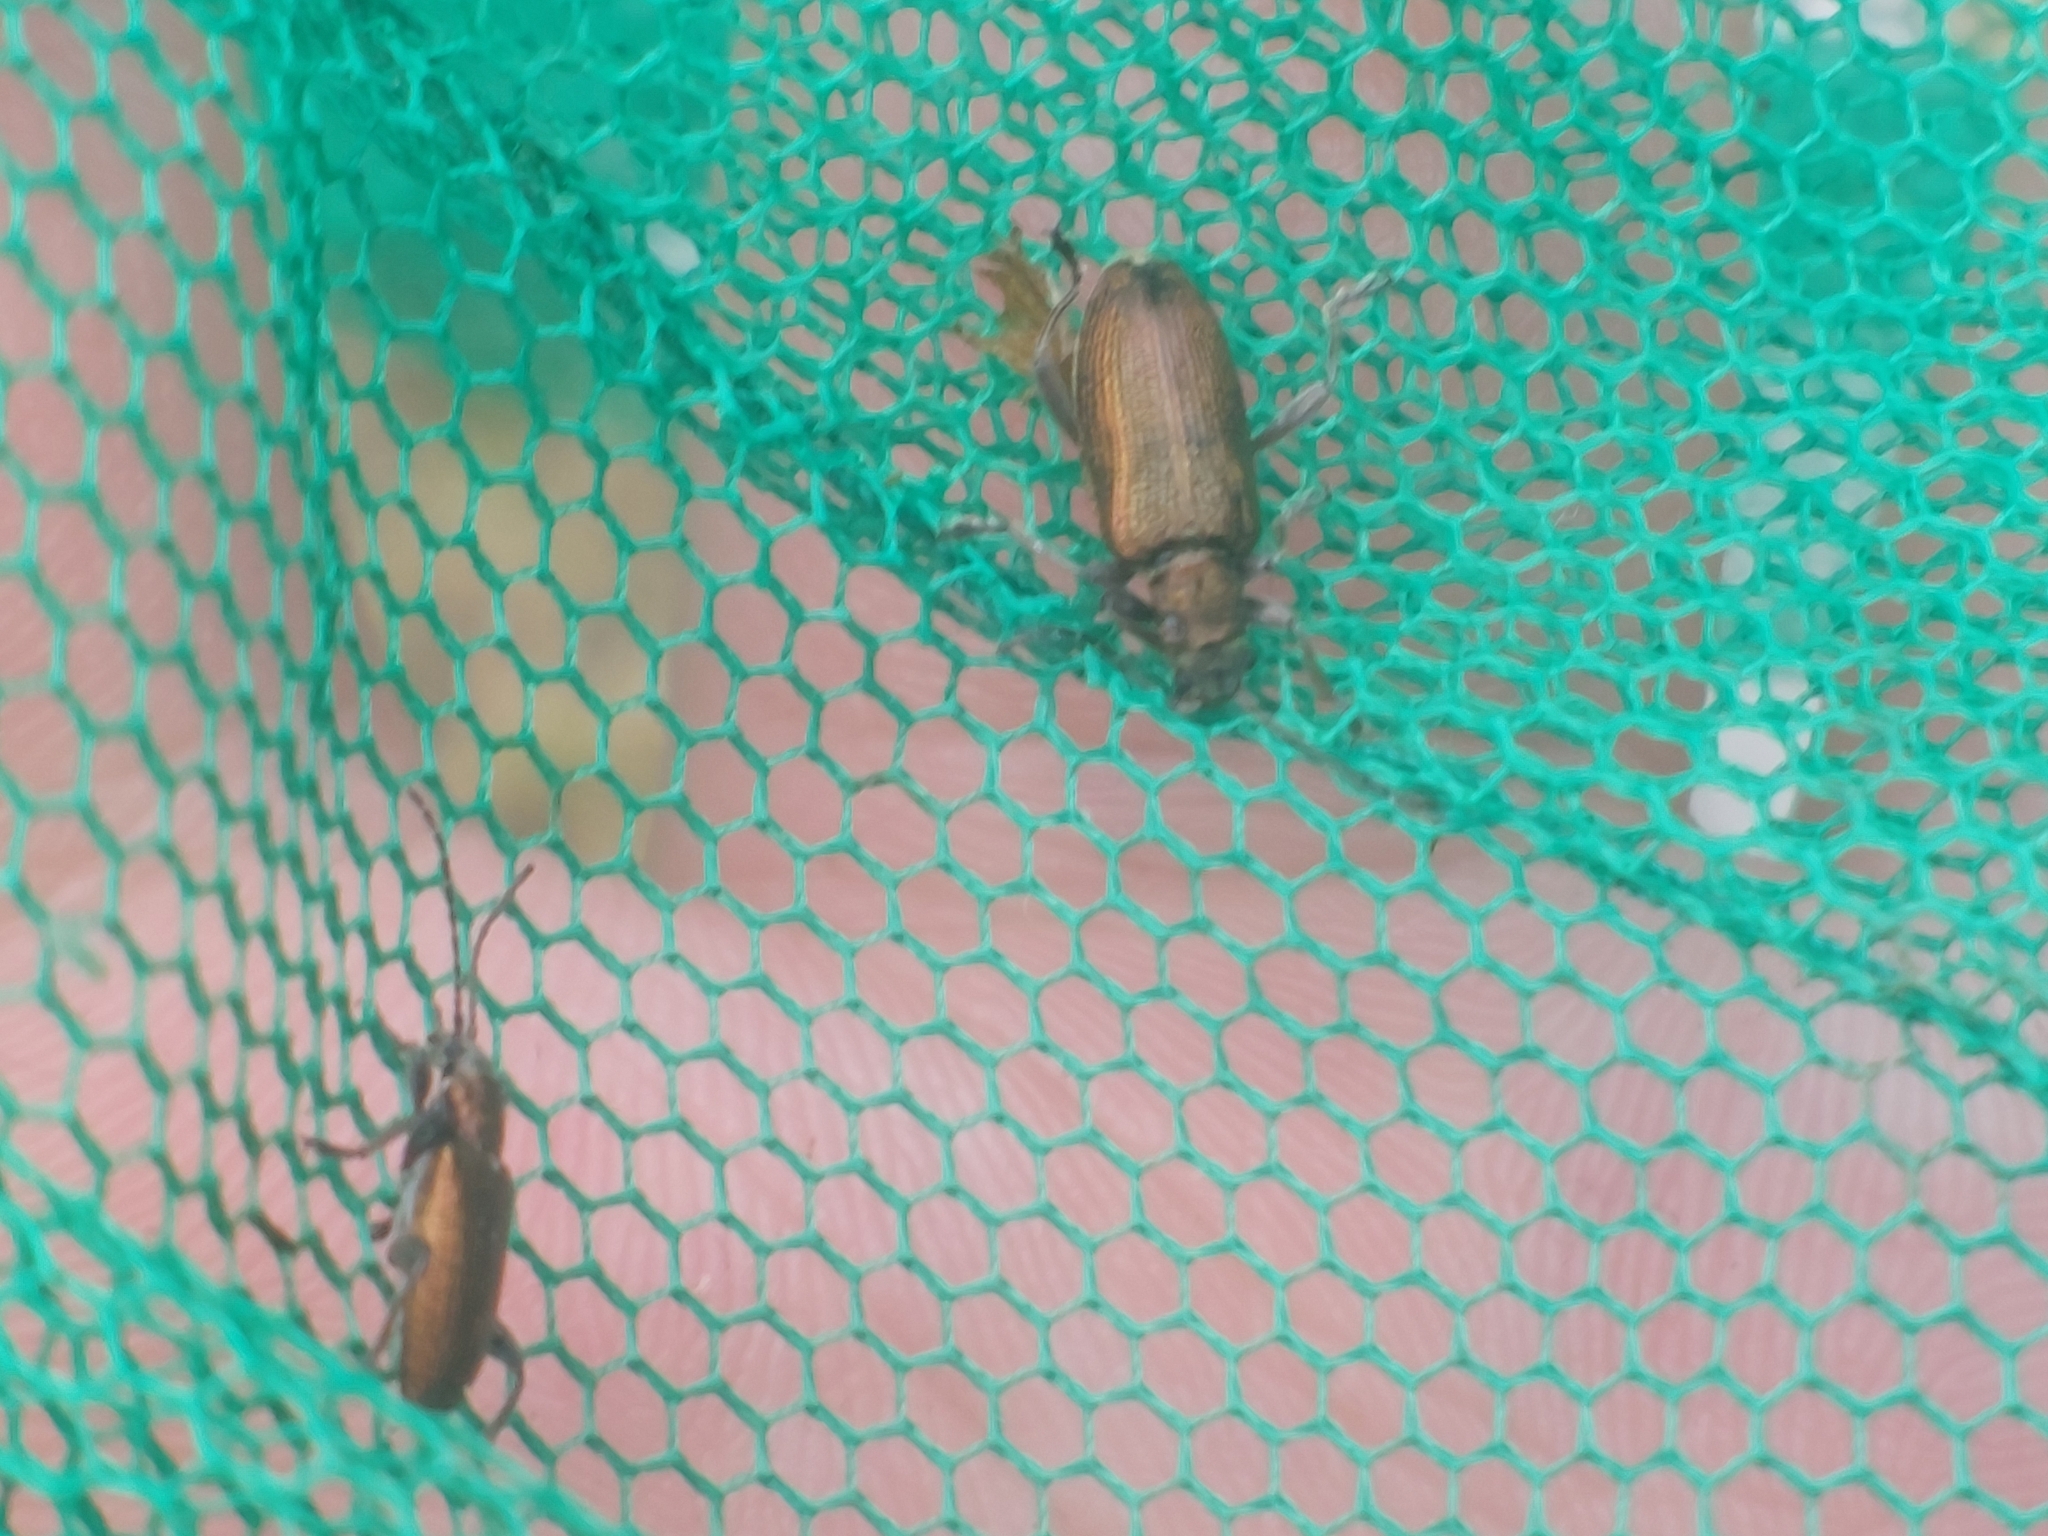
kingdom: Animalia
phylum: Arthropoda
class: Insecta
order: Coleoptera
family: Chrysomelidae
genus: Donacia
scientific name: Donacia semicuprea
